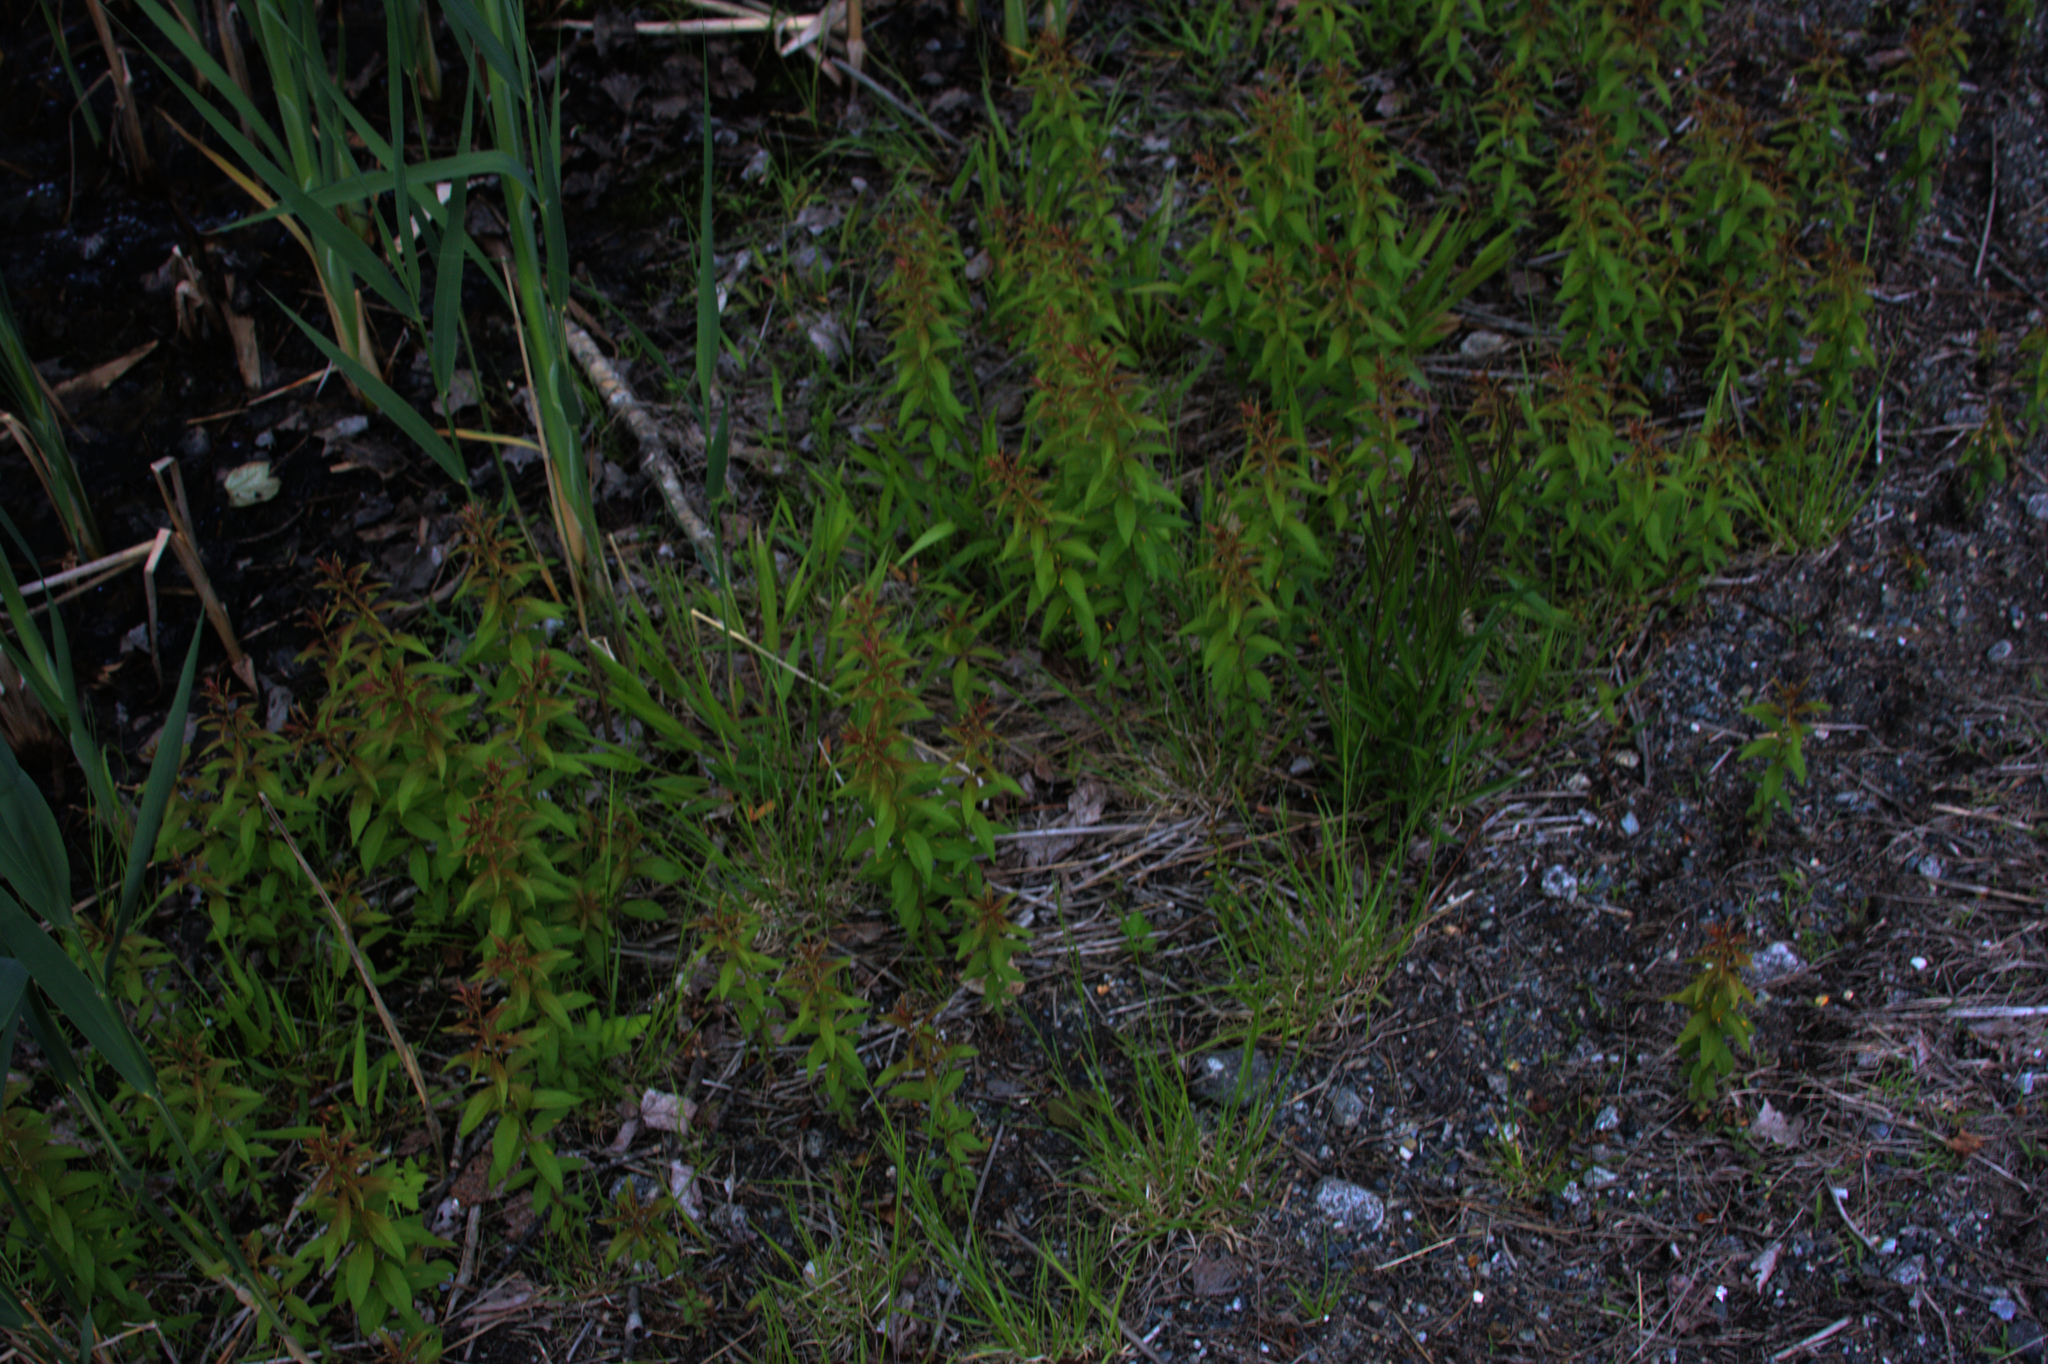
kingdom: Plantae
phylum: Tracheophyta
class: Magnoliopsida
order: Ericales
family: Primulaceae
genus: Lysimachia
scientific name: Lysimachia quadrifolia
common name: Whorled loosestrife
